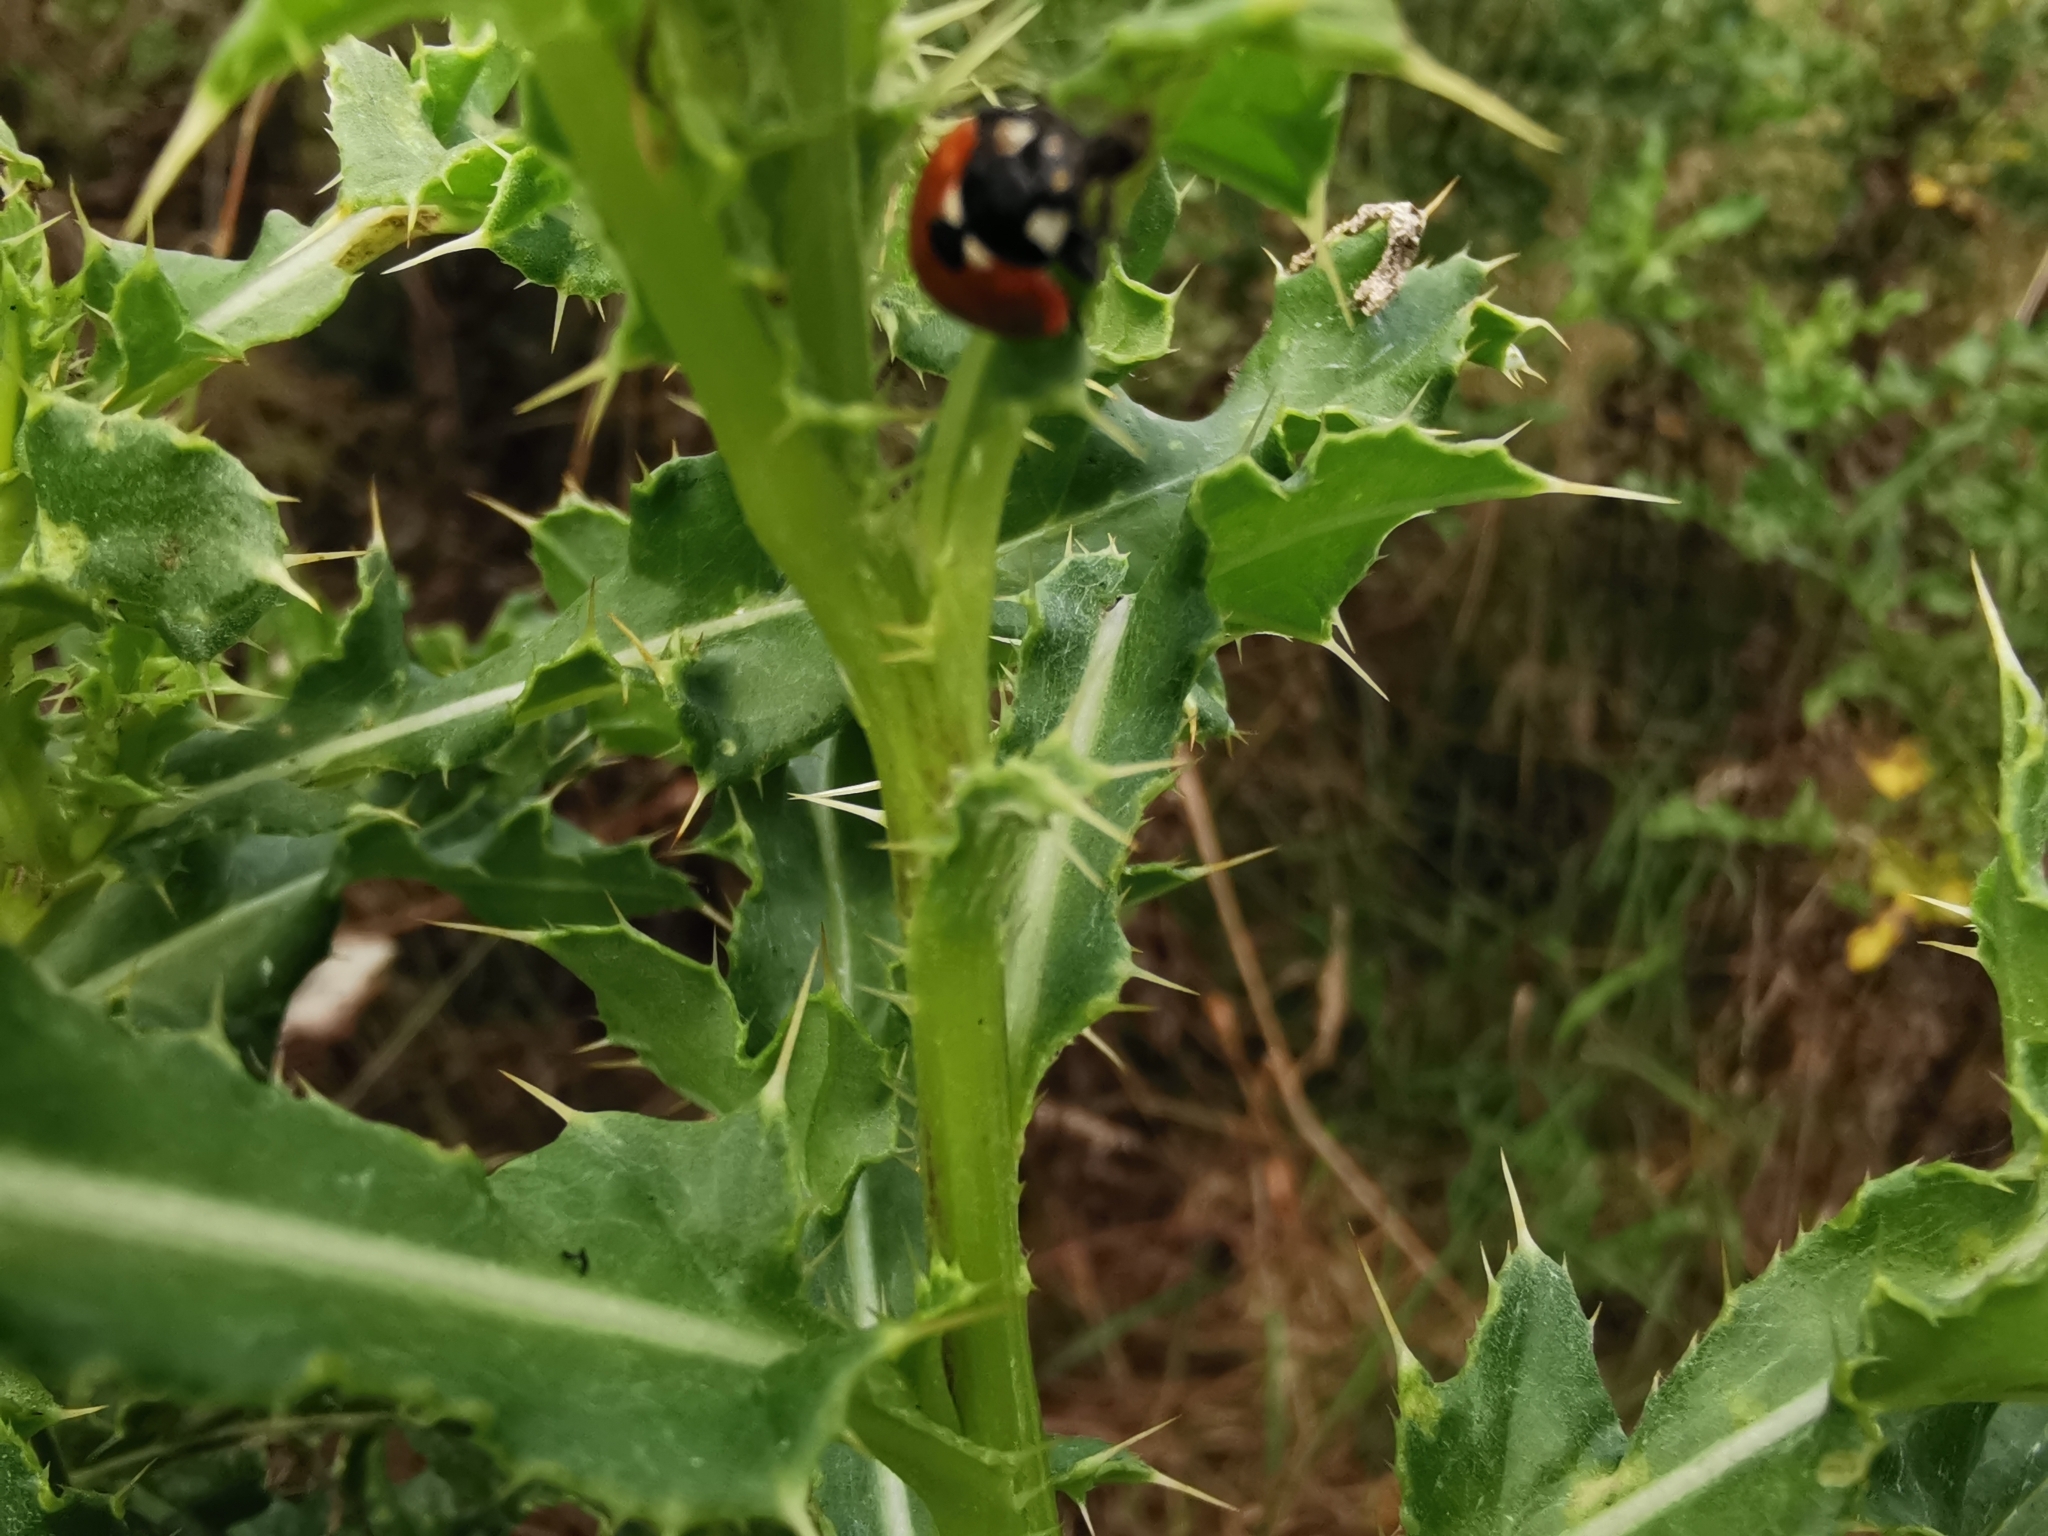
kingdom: Animalia
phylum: Arthropoda
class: Insecta
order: Coleoptera
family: Coccinellidae
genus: Coccinella
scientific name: Coccinella septempunctata
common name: Sevenspotted lady beetle
